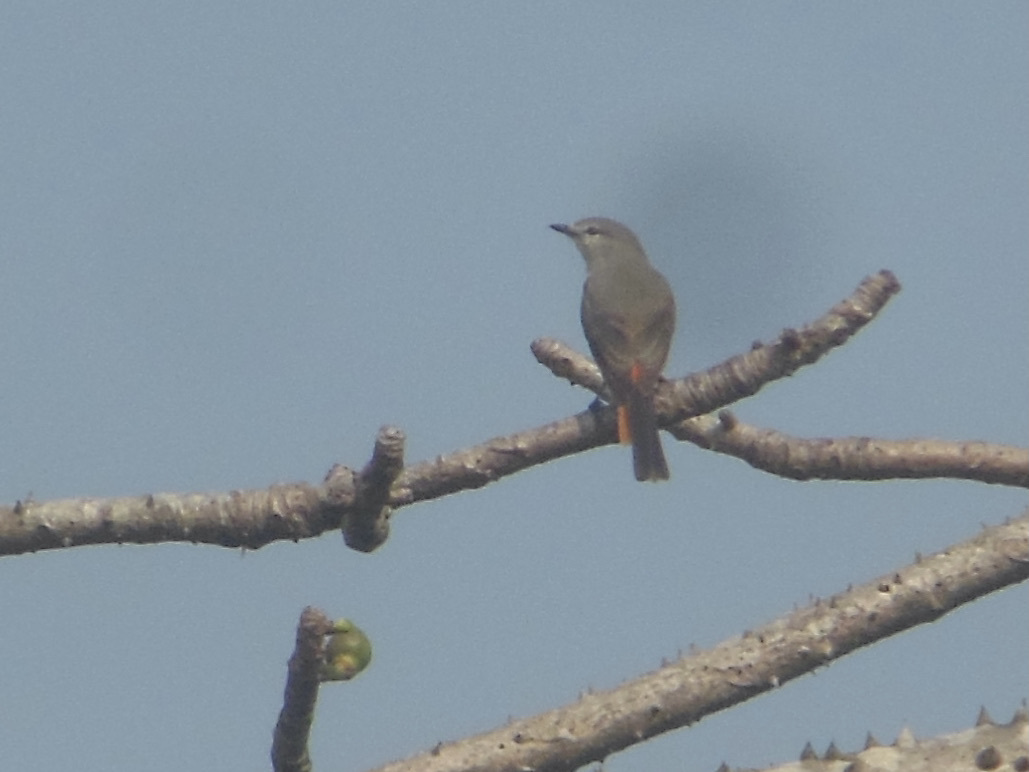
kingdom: Animalia
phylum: Chordata
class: Aves
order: Passeriformes
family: Campephagidae
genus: Pericrocotus
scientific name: Pericrocotus cinnamomeus
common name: Small minivet
